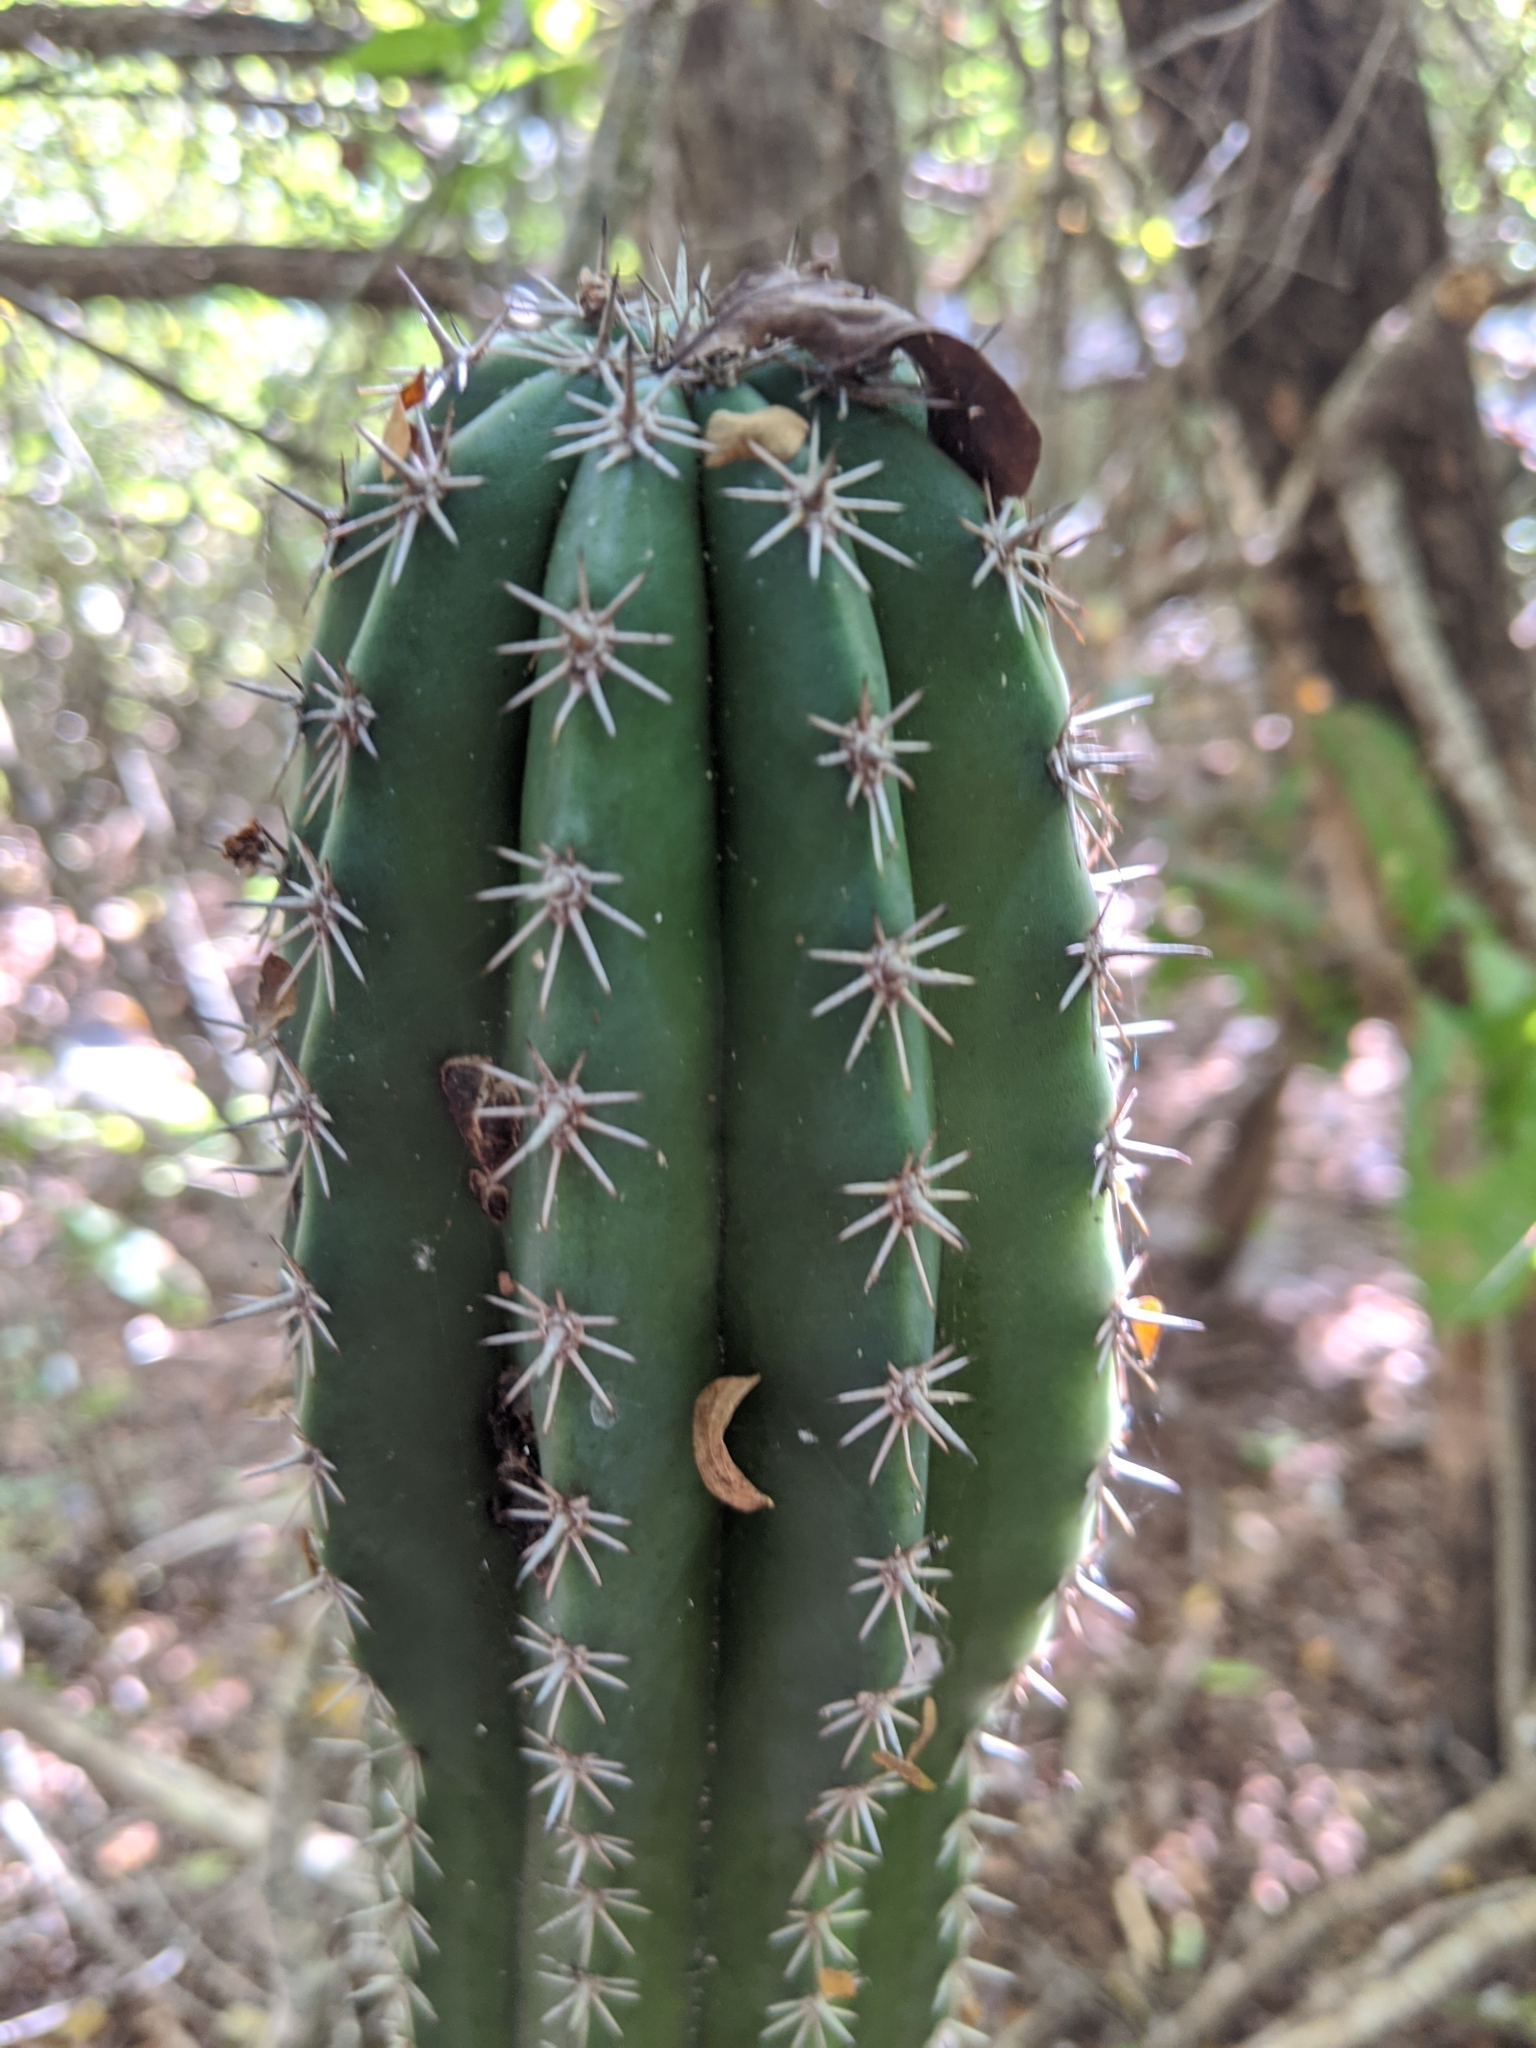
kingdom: Plantae
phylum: Tracheophyta
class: Magnoliopsida
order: Caryophyllales
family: Cactaceae
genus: Pachycereus
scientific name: Pachycereus pecten-aboriginum
